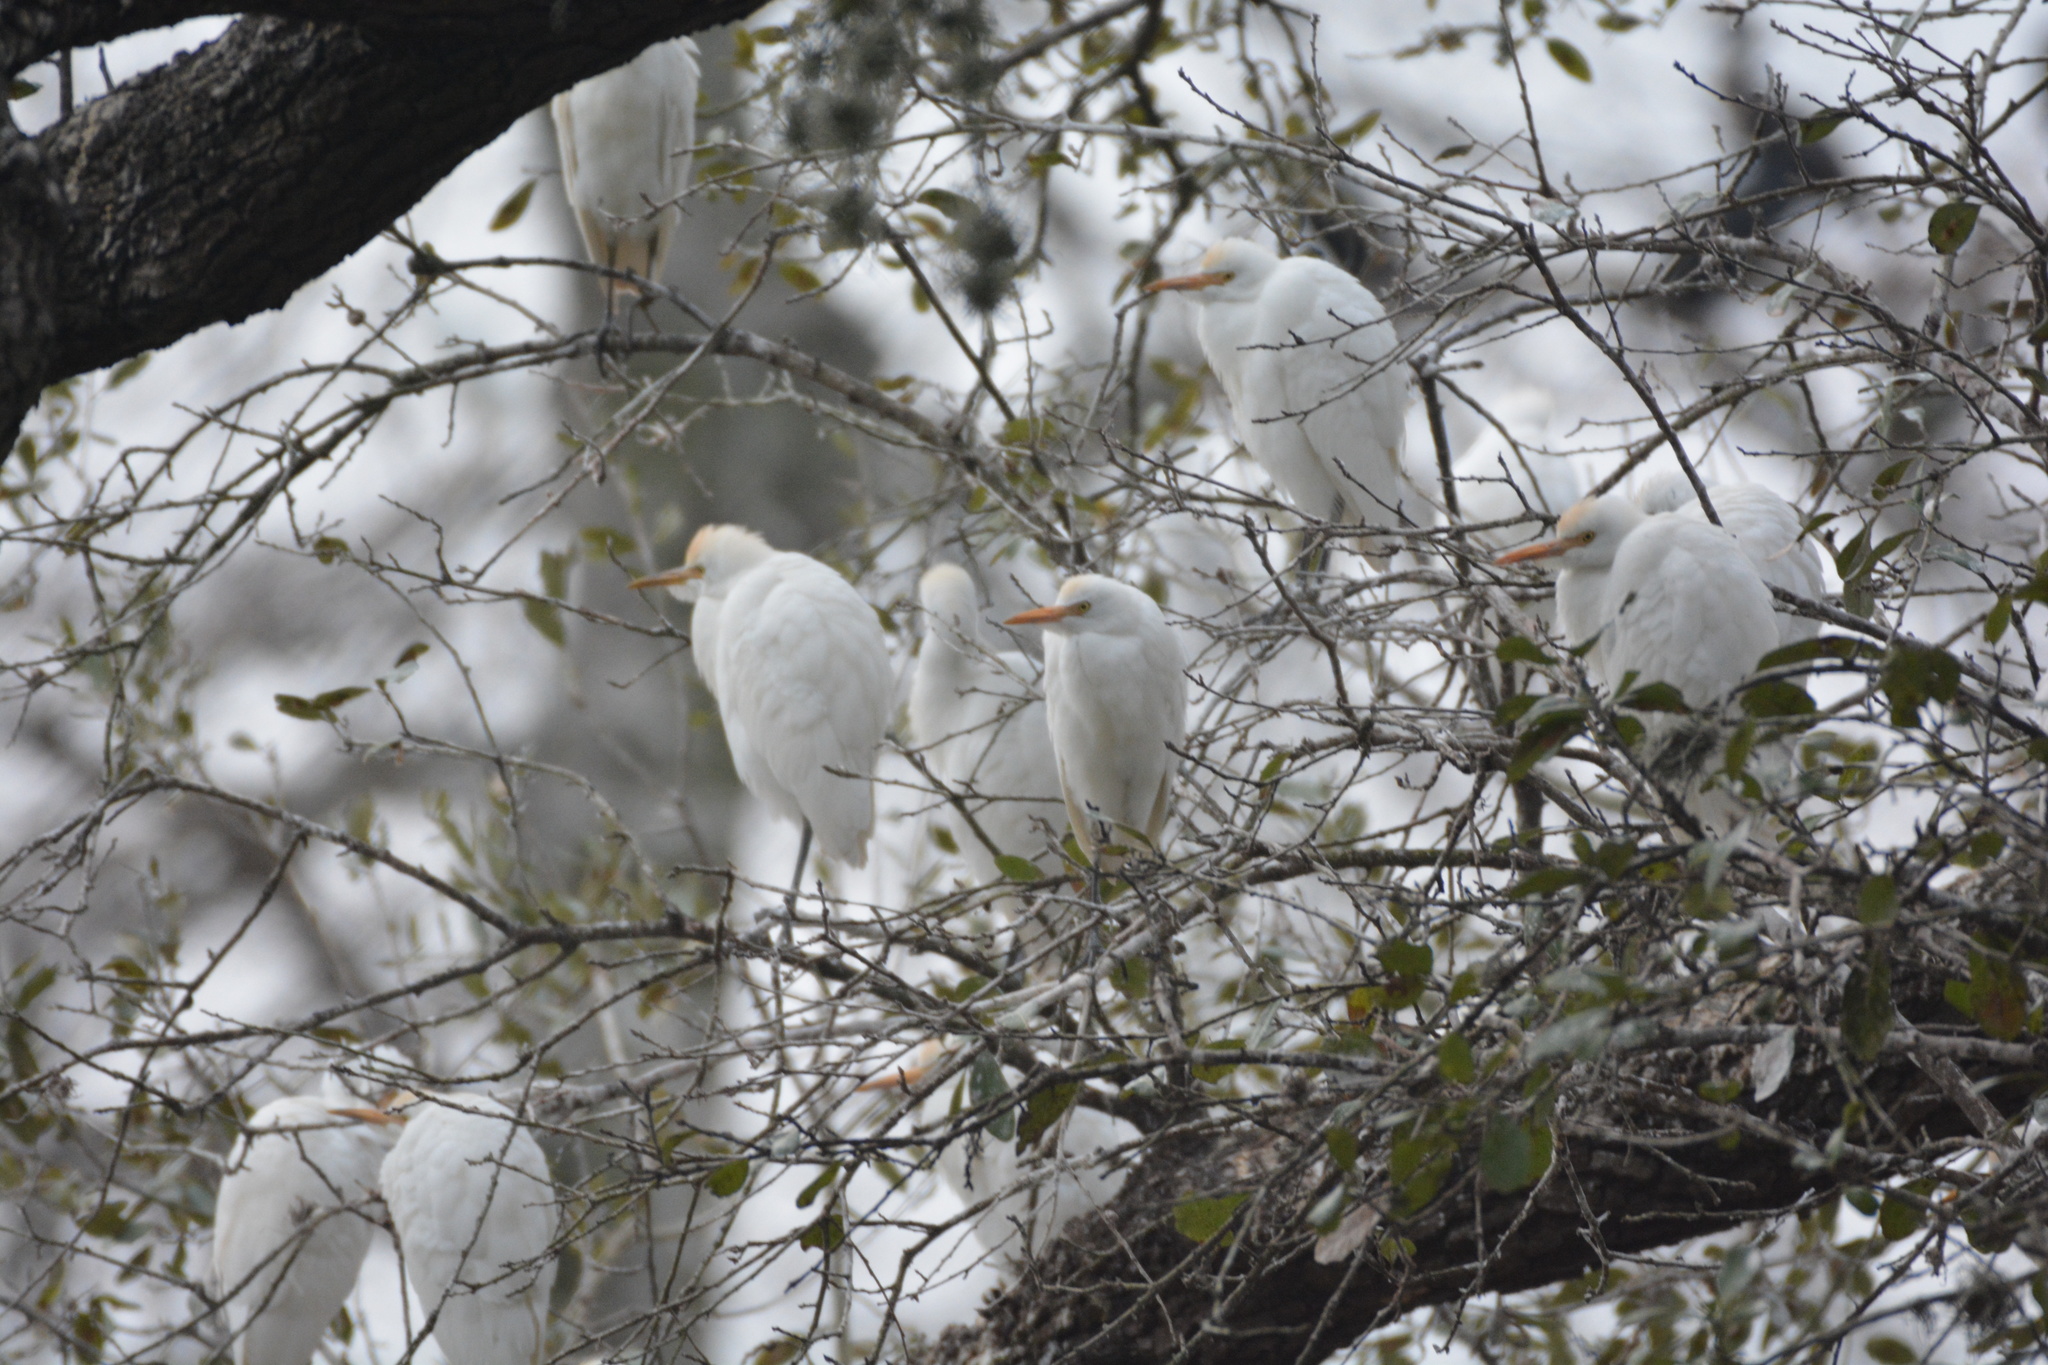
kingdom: Animalia
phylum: Chordata
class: Aves
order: Pelecaniformes
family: Ardeidae
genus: Bubulcus
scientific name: Bubulcus ibis
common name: Cattle egret
